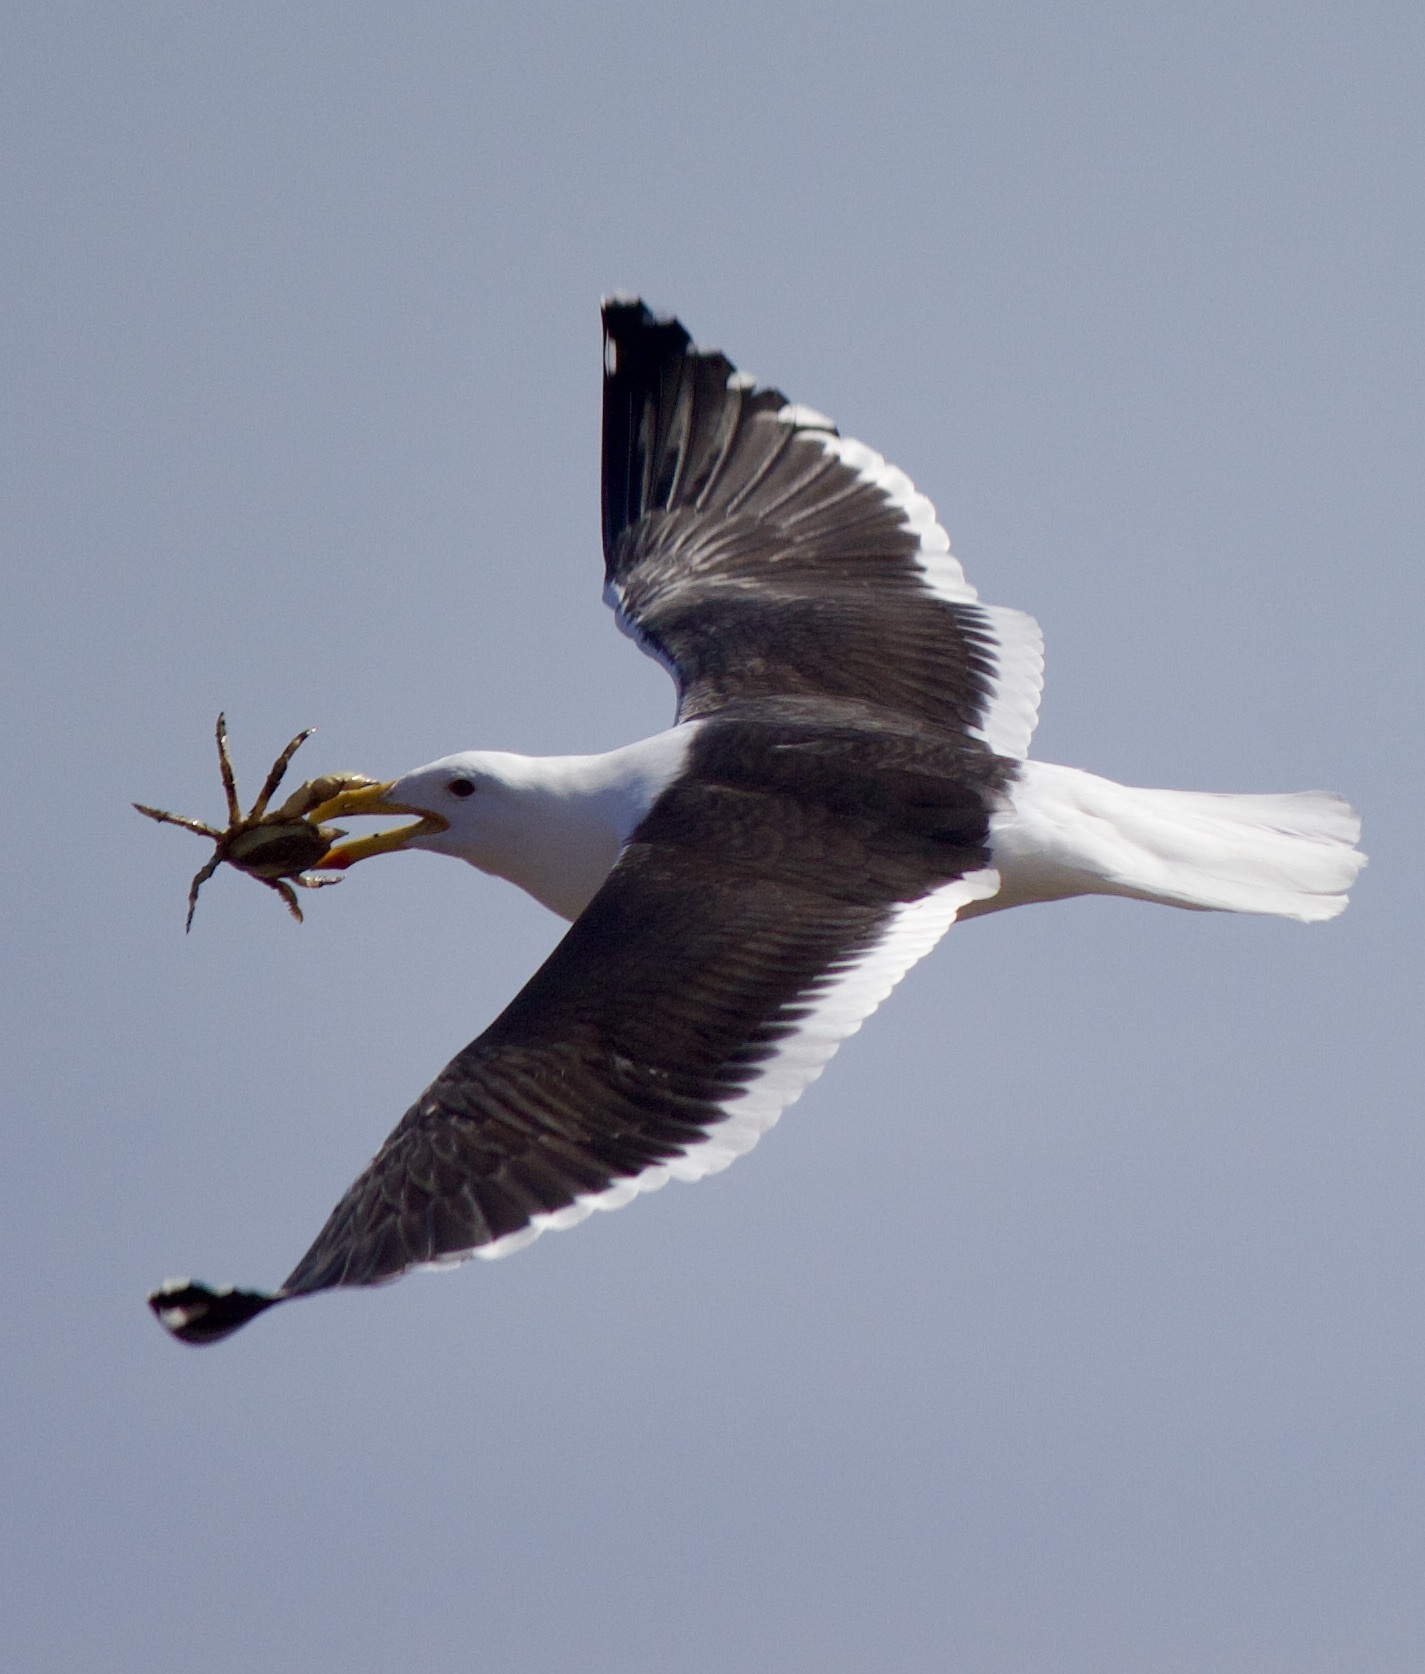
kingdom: Animalia
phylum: Chordata
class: Aves
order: Charadriiformes
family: Laridae
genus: Larus
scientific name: Larus dominicanus
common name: Kelp gull
